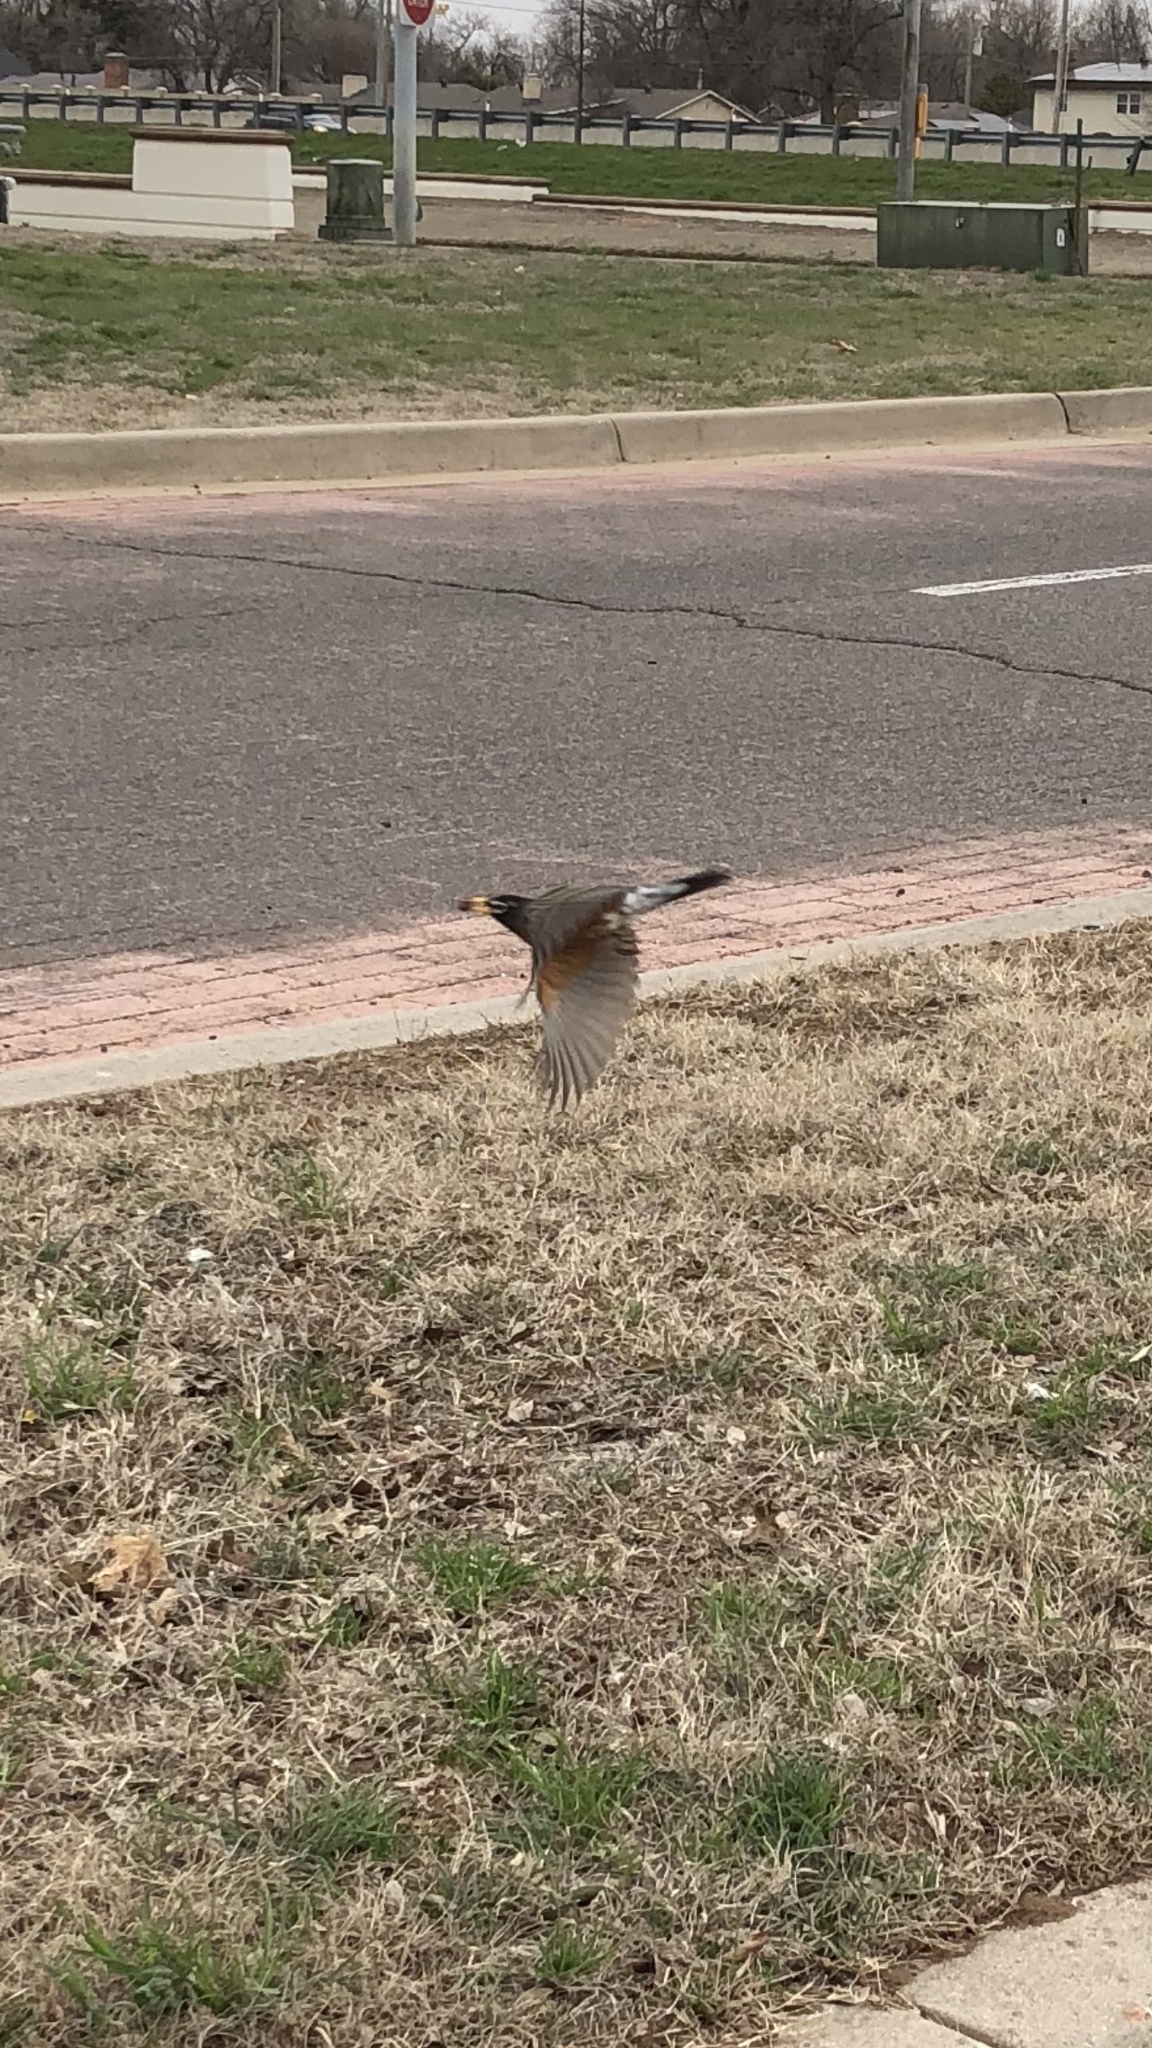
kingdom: Animalia
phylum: Chordata
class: Aves
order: Passeriformes
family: Turdidae
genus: Turdus
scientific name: Turdus migratorius
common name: American robin
